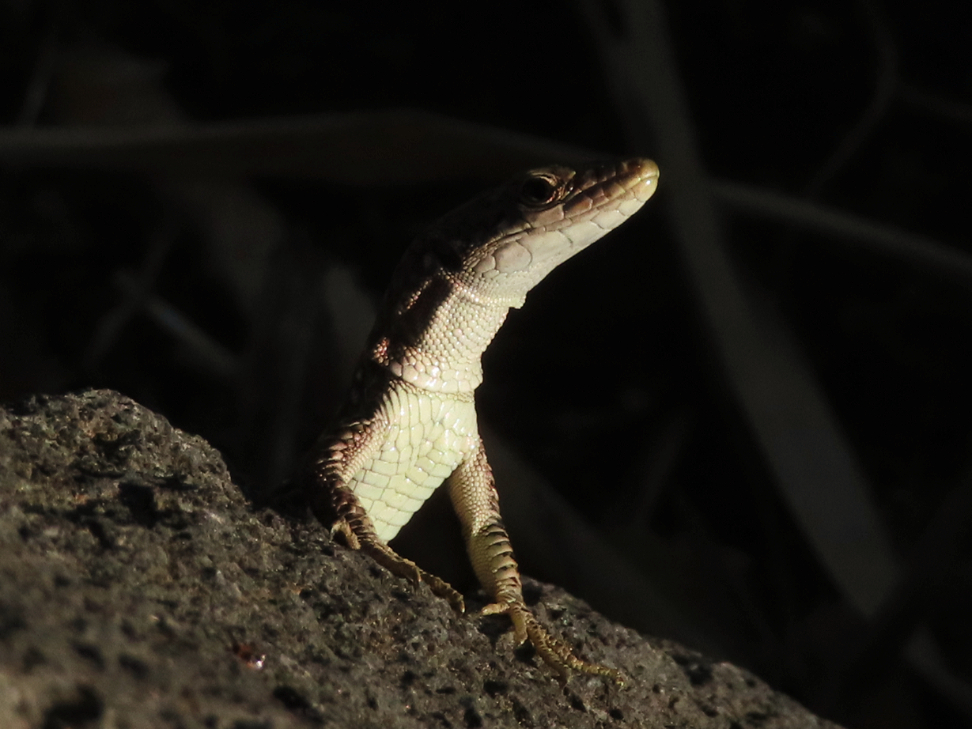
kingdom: Animalia
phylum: Chordata
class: Squamata
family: Lacertidae
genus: Darevskia
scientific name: Darevskia
